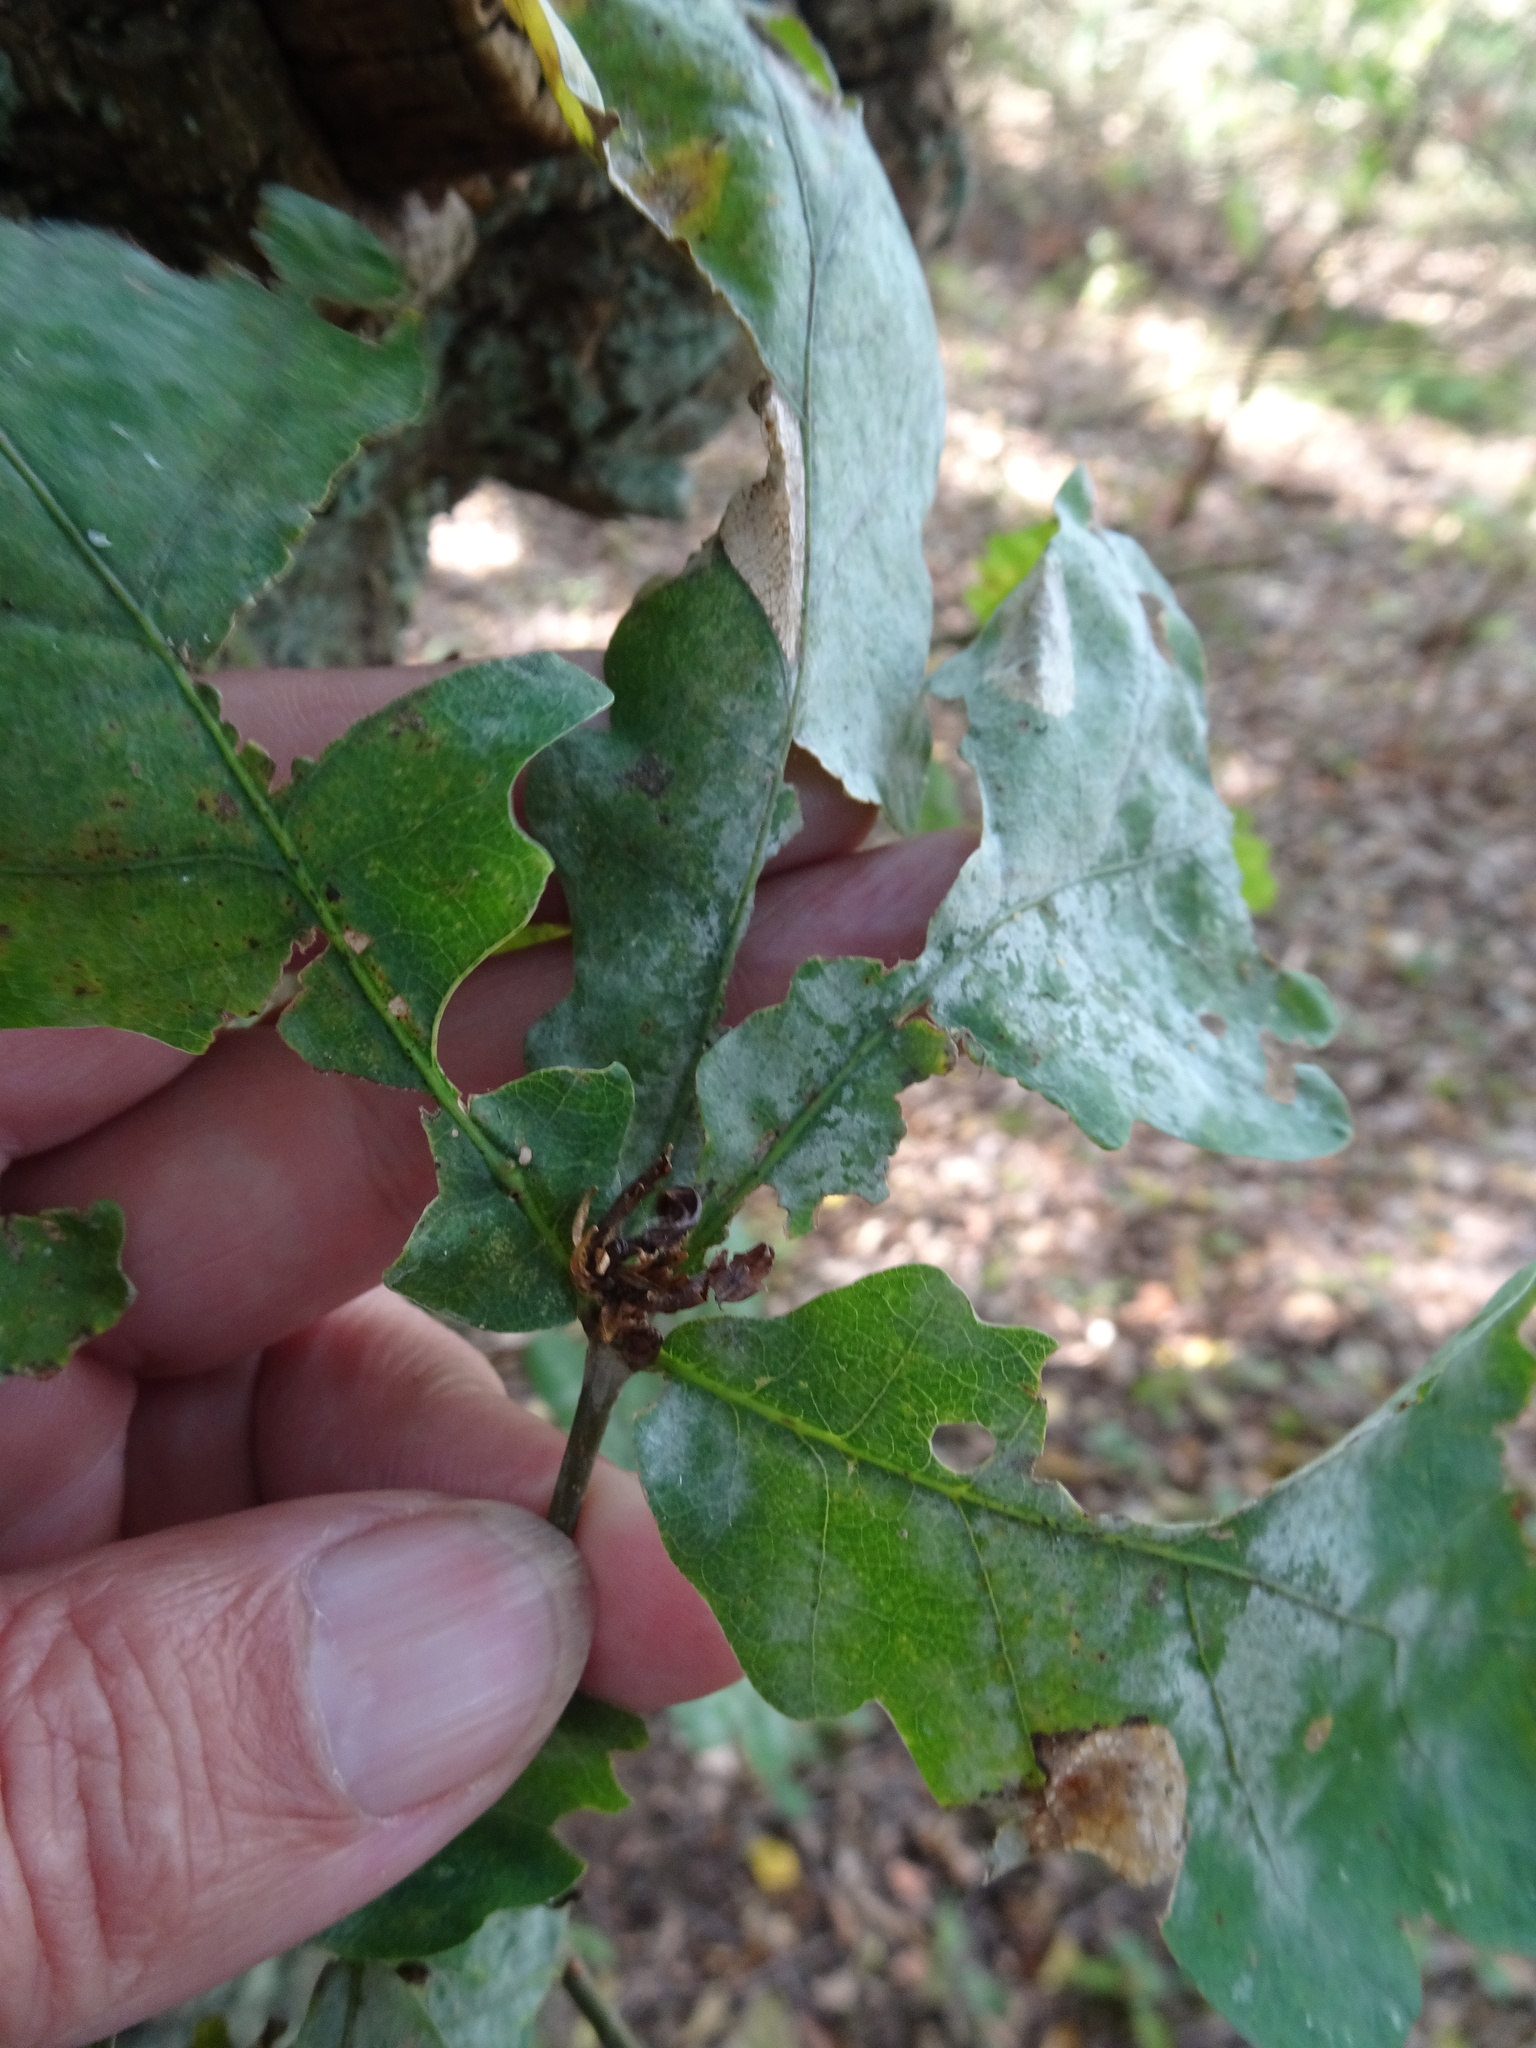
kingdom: Plantae
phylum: Tracheophyta
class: Magnoliopsida
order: Fagales
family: Fagaceae
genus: Quercus
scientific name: Quercus robur
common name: Pedunculate oak
